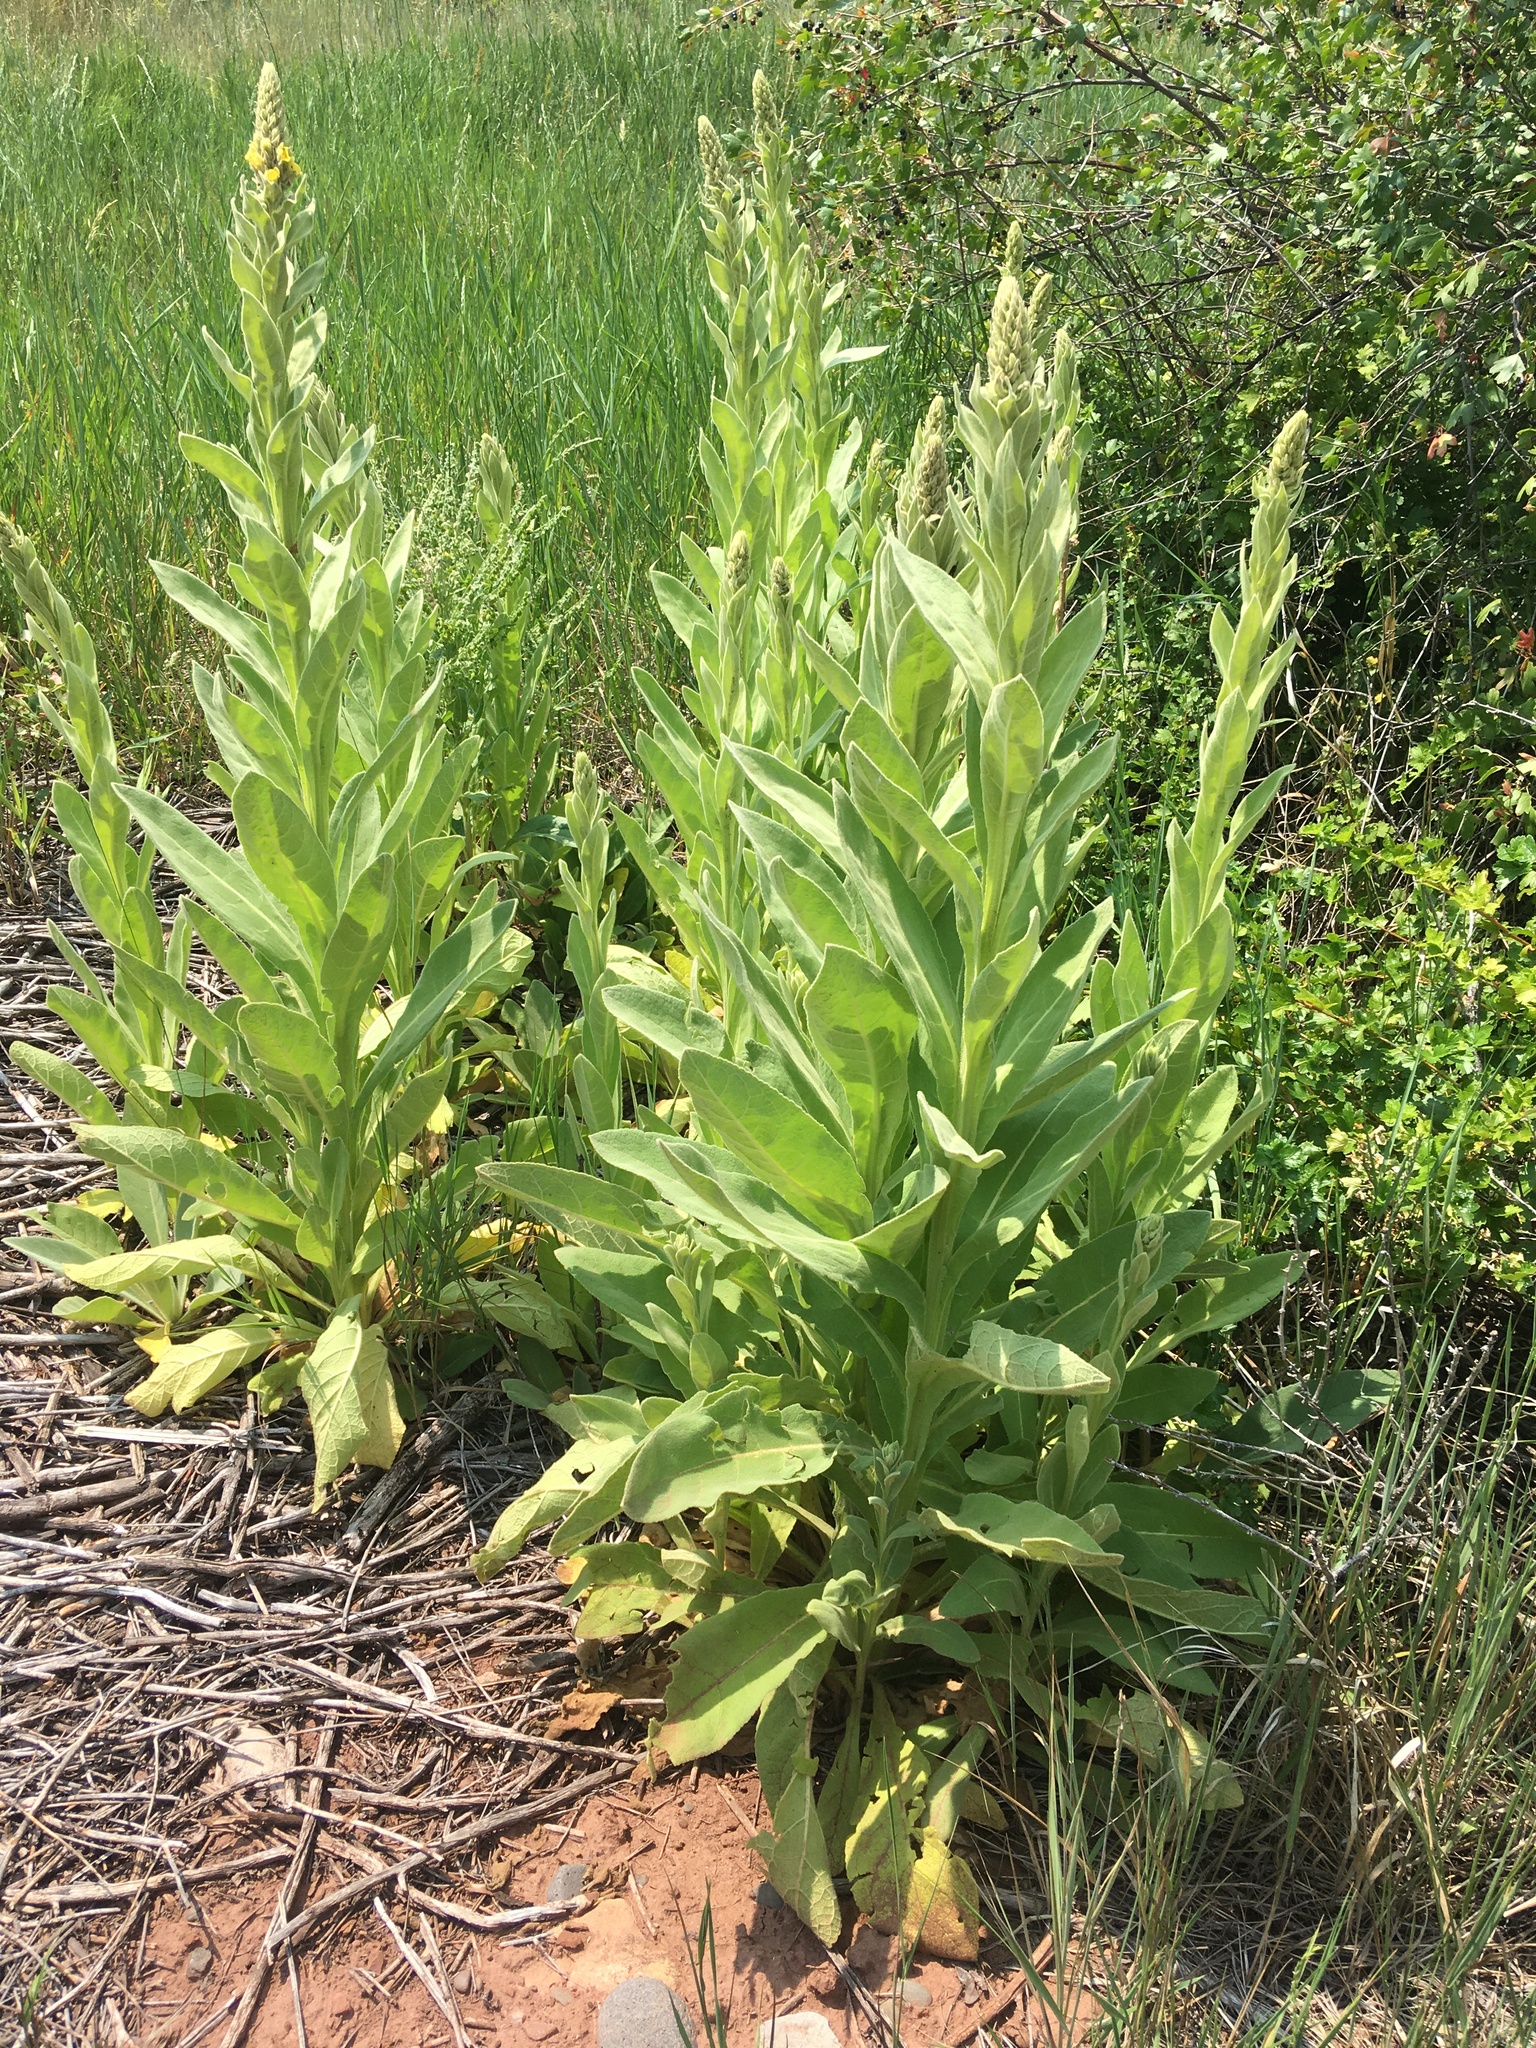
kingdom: Plantae
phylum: Tracheophyta
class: Magnoliopsida
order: Lamiales
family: Scrophulariaceae
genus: Verbascum
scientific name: Verbascum thapsus
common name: Common mullein
